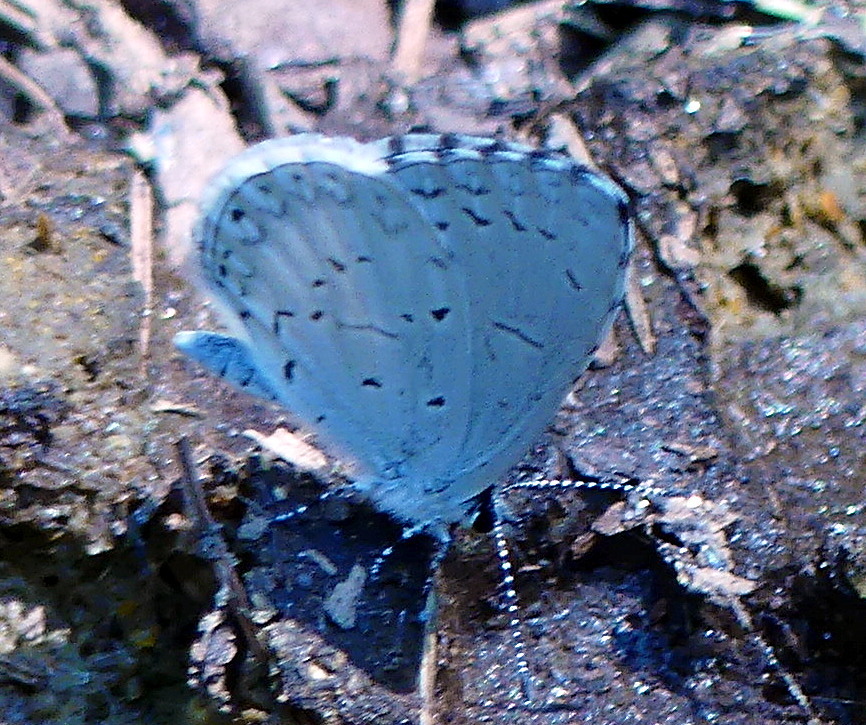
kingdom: Animalia
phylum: Arthropoda
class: Insecta
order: Lepidoptera
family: Lycaenidae
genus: Celastrina
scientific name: Celastrina lucia
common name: Lucia azure
